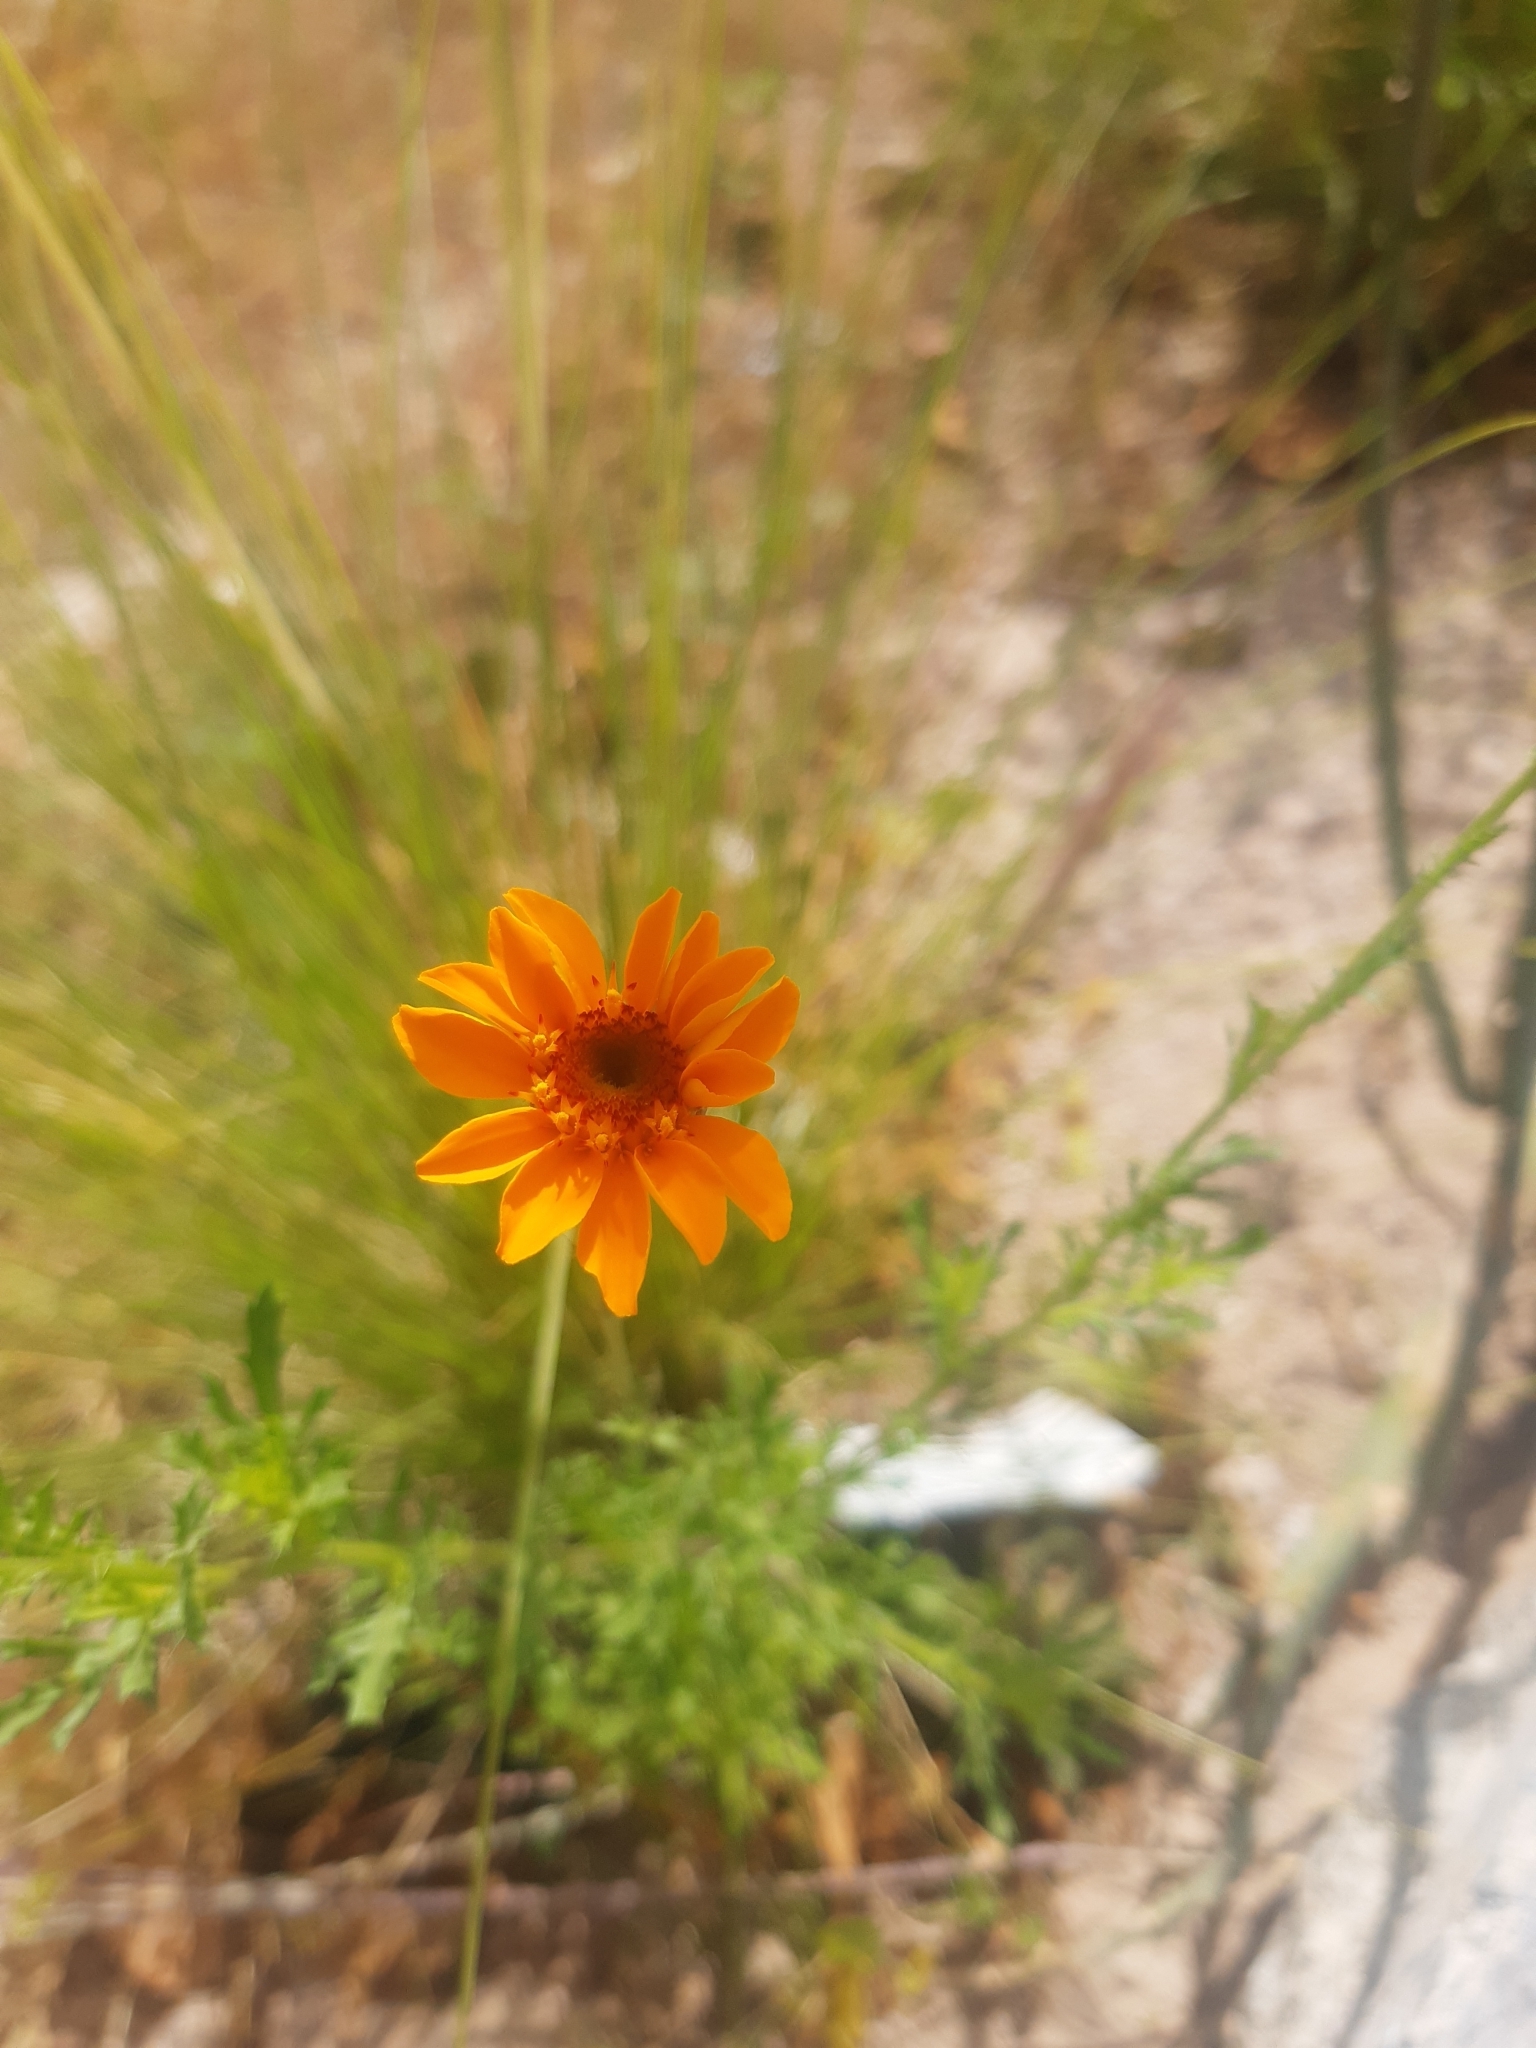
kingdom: Plantae
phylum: Tracheophyta
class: Magnoliopsida
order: Asterales
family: Asteraceae
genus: Adenophyllum
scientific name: Adenophyllum cancellatum
